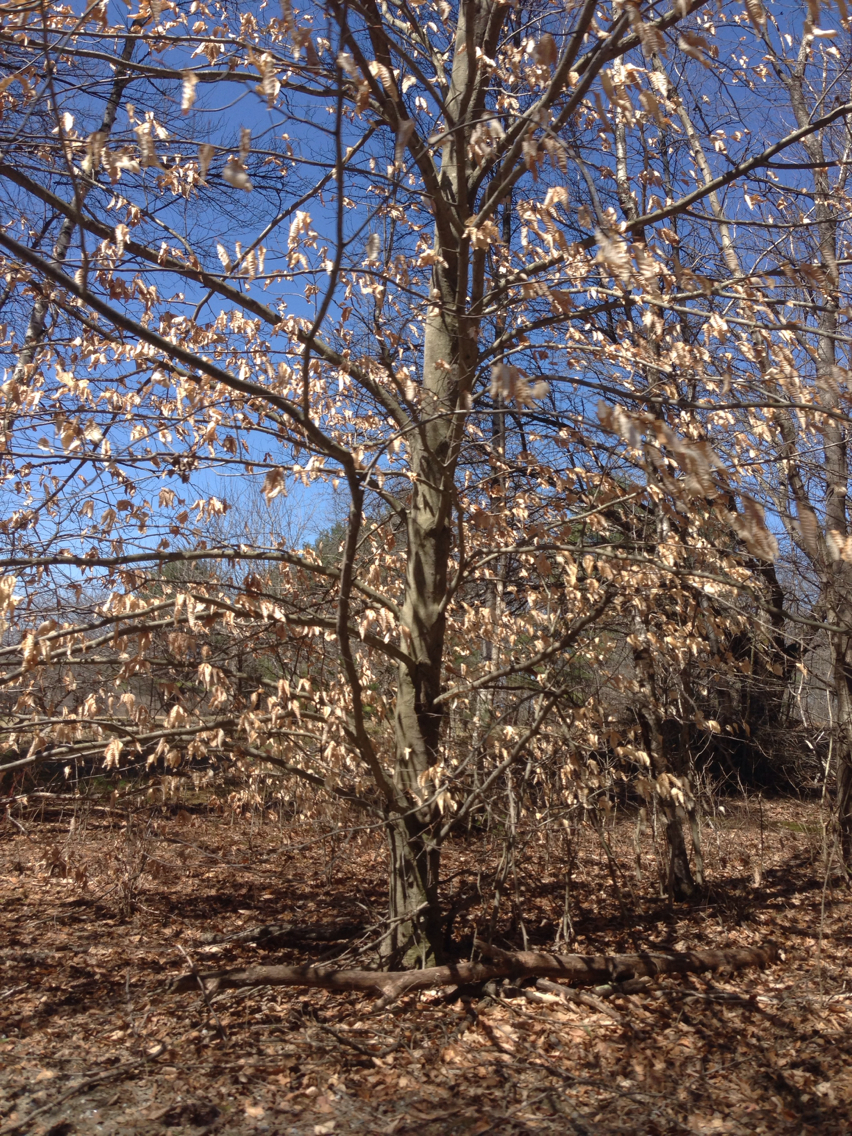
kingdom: Plantae
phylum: Tracheophyta
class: Magnoliopsida
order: Fagales
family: Fagaceae
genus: Fagus
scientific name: Fagus grandifolia
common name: American beech
